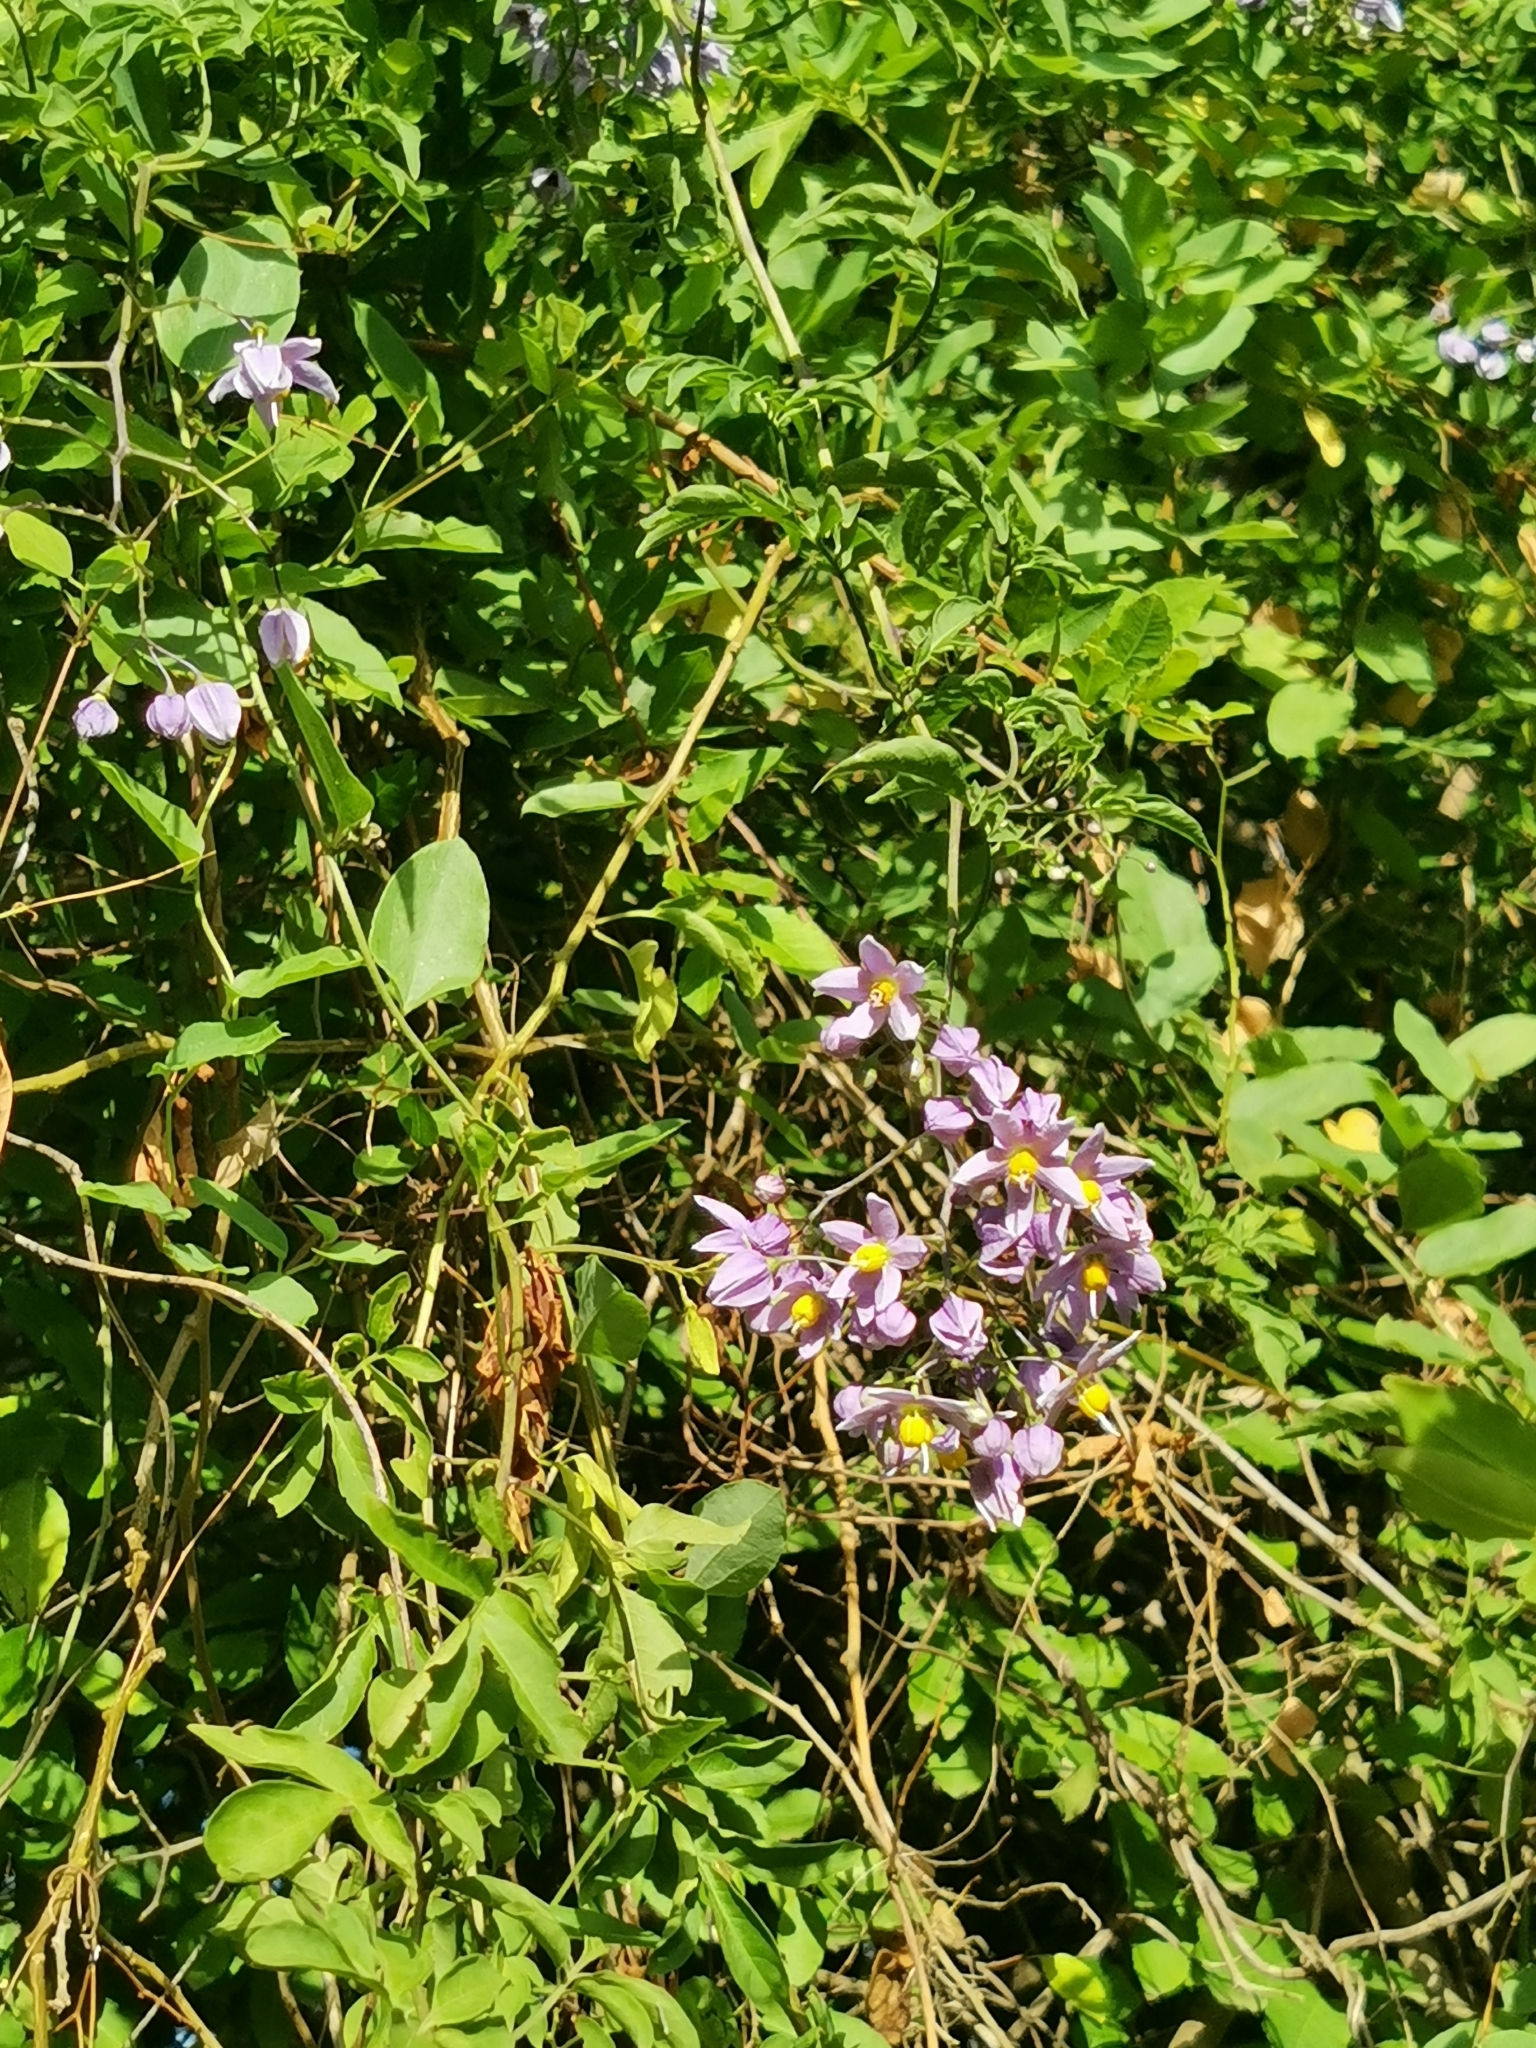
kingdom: Plantae
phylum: Tracheophyta
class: Magnoliopsida
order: Solanales
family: Solanaceae
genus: Solanum
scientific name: Solanum seaforthianum
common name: Brazilian nightshade
